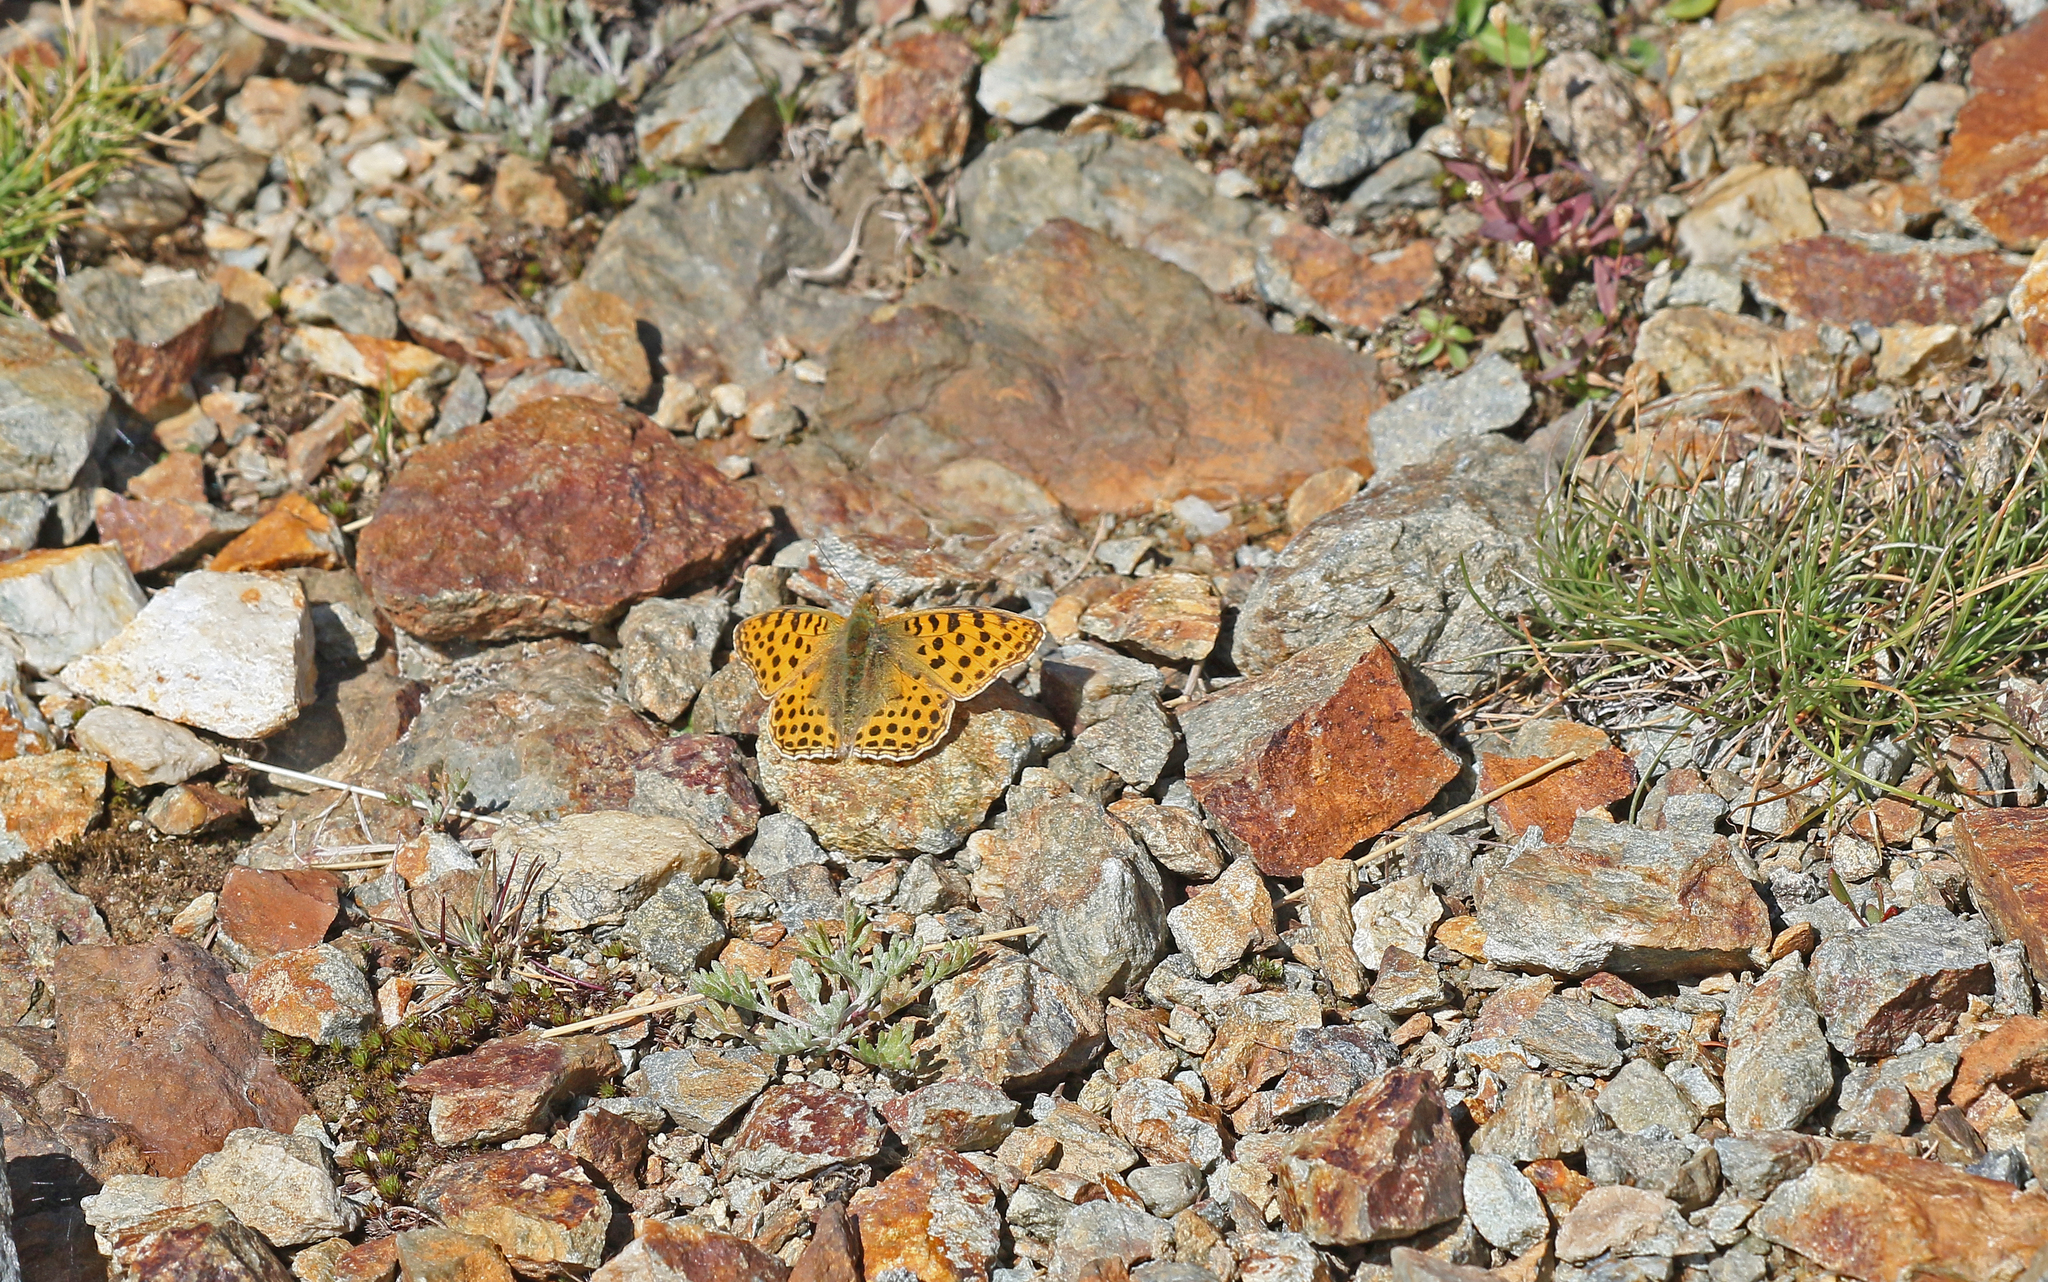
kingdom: Animalia
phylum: Arthropoda
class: Insecta
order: Lepidoptera
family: Nymphalidae
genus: Issoria
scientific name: Issoria lathonia
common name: Queen of spain fritillary
